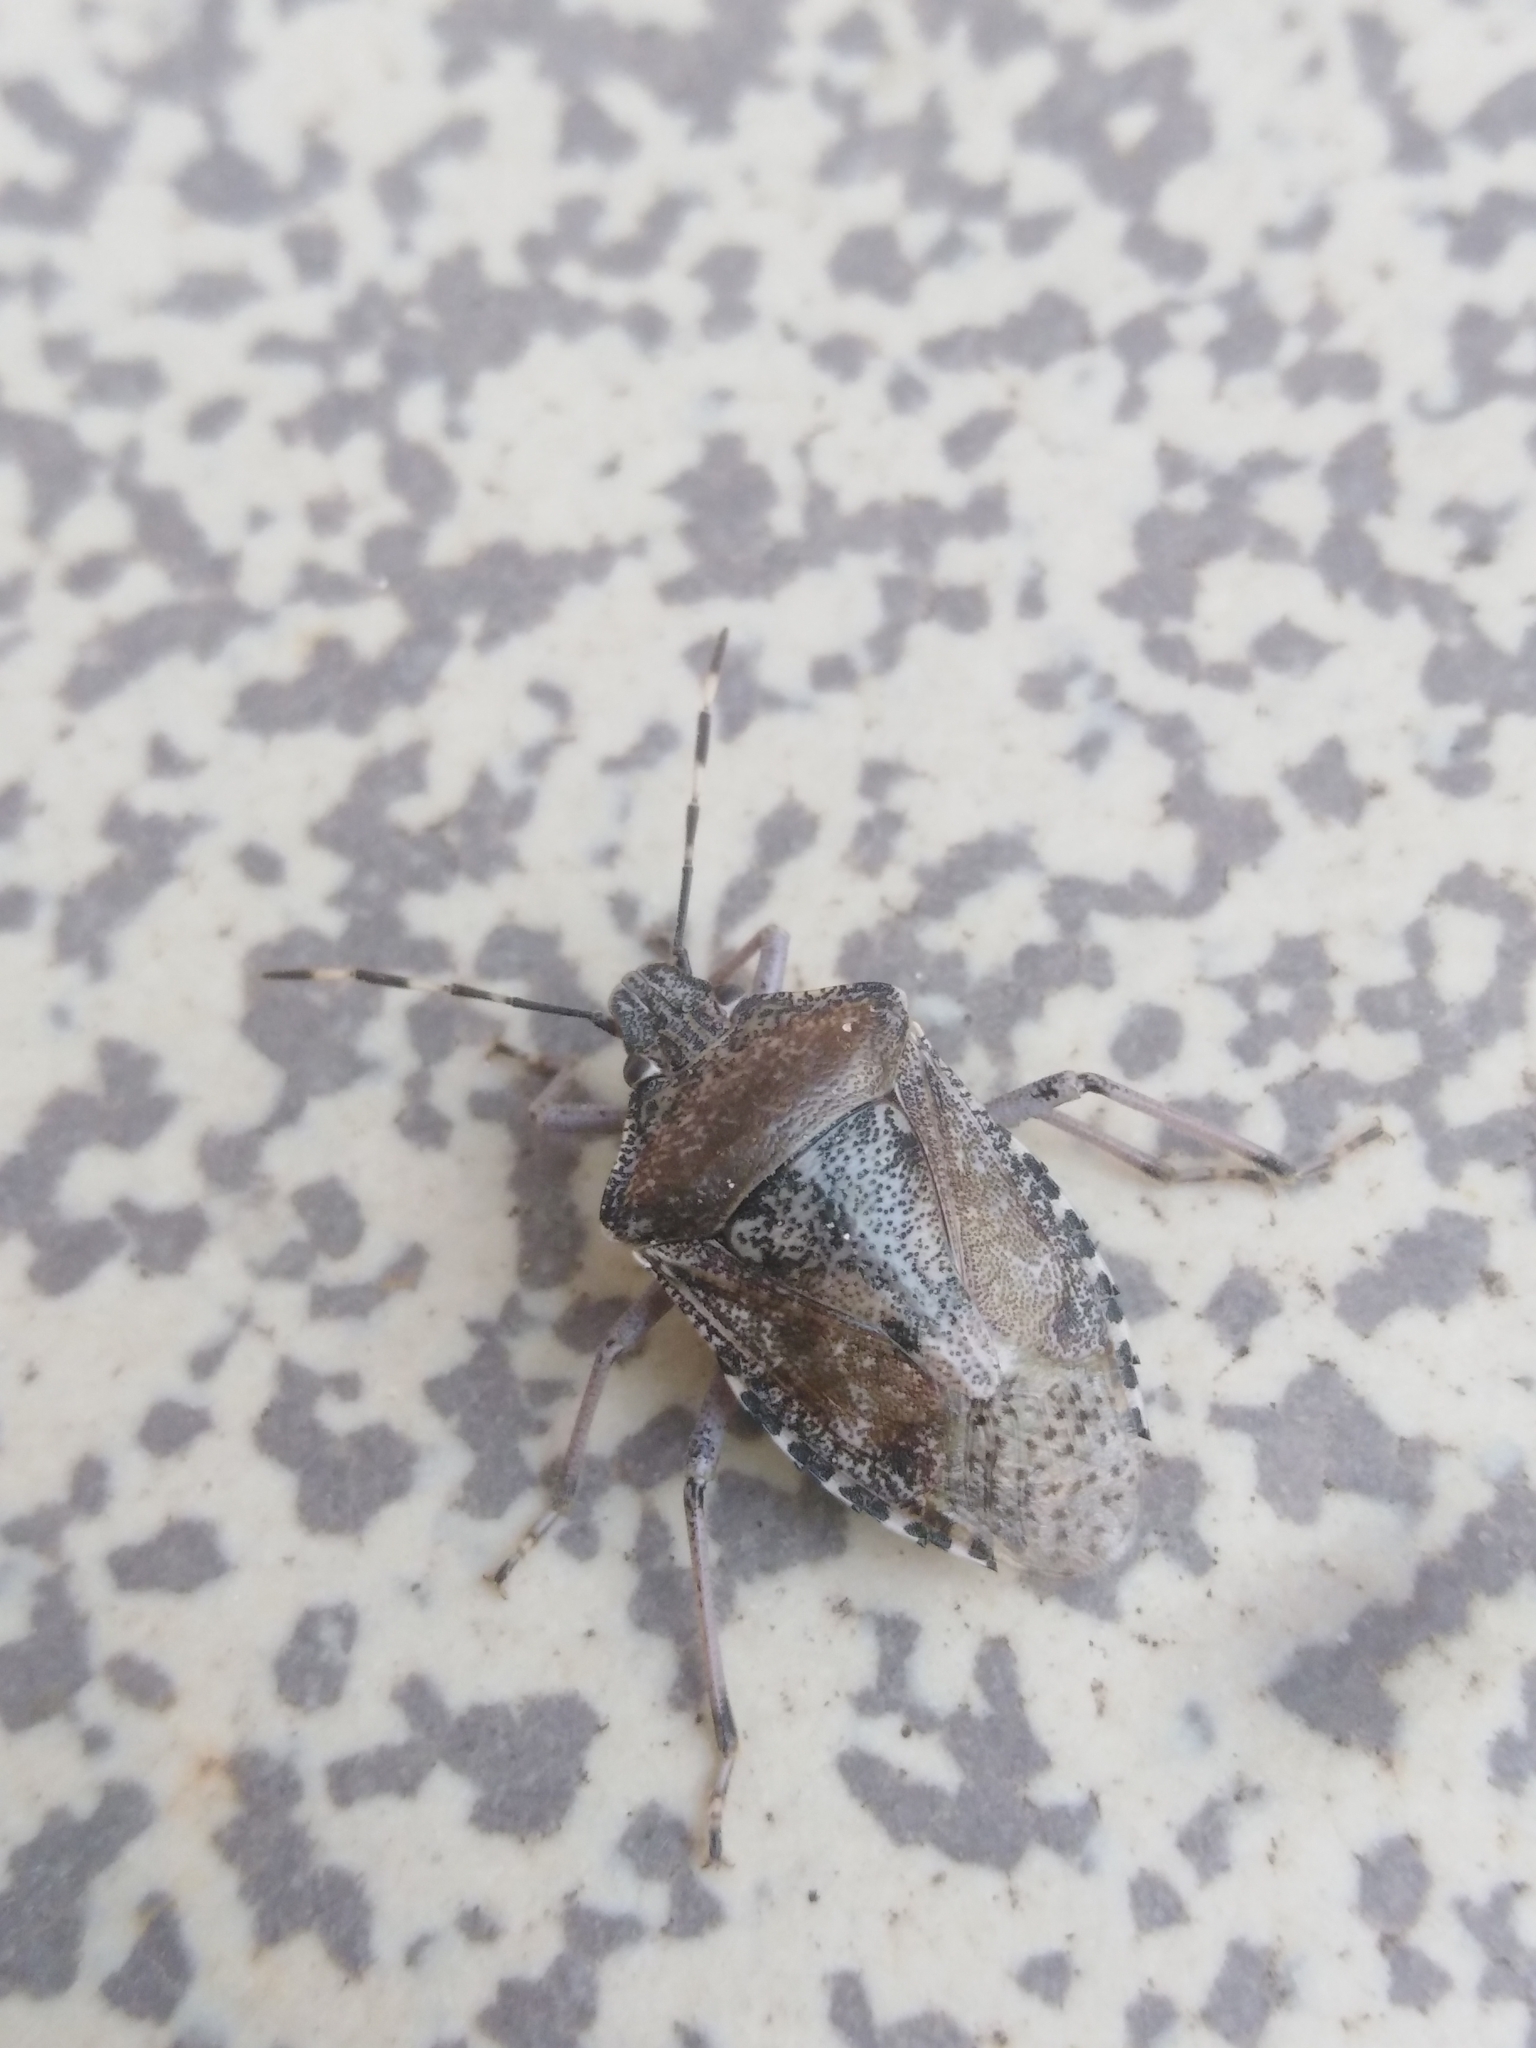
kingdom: Animalia
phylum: Arthropoda
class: Insecta
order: Hemiptera
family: Pentatomidae
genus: Rhaphigaster
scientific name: Rhaphigaster nebulosa
